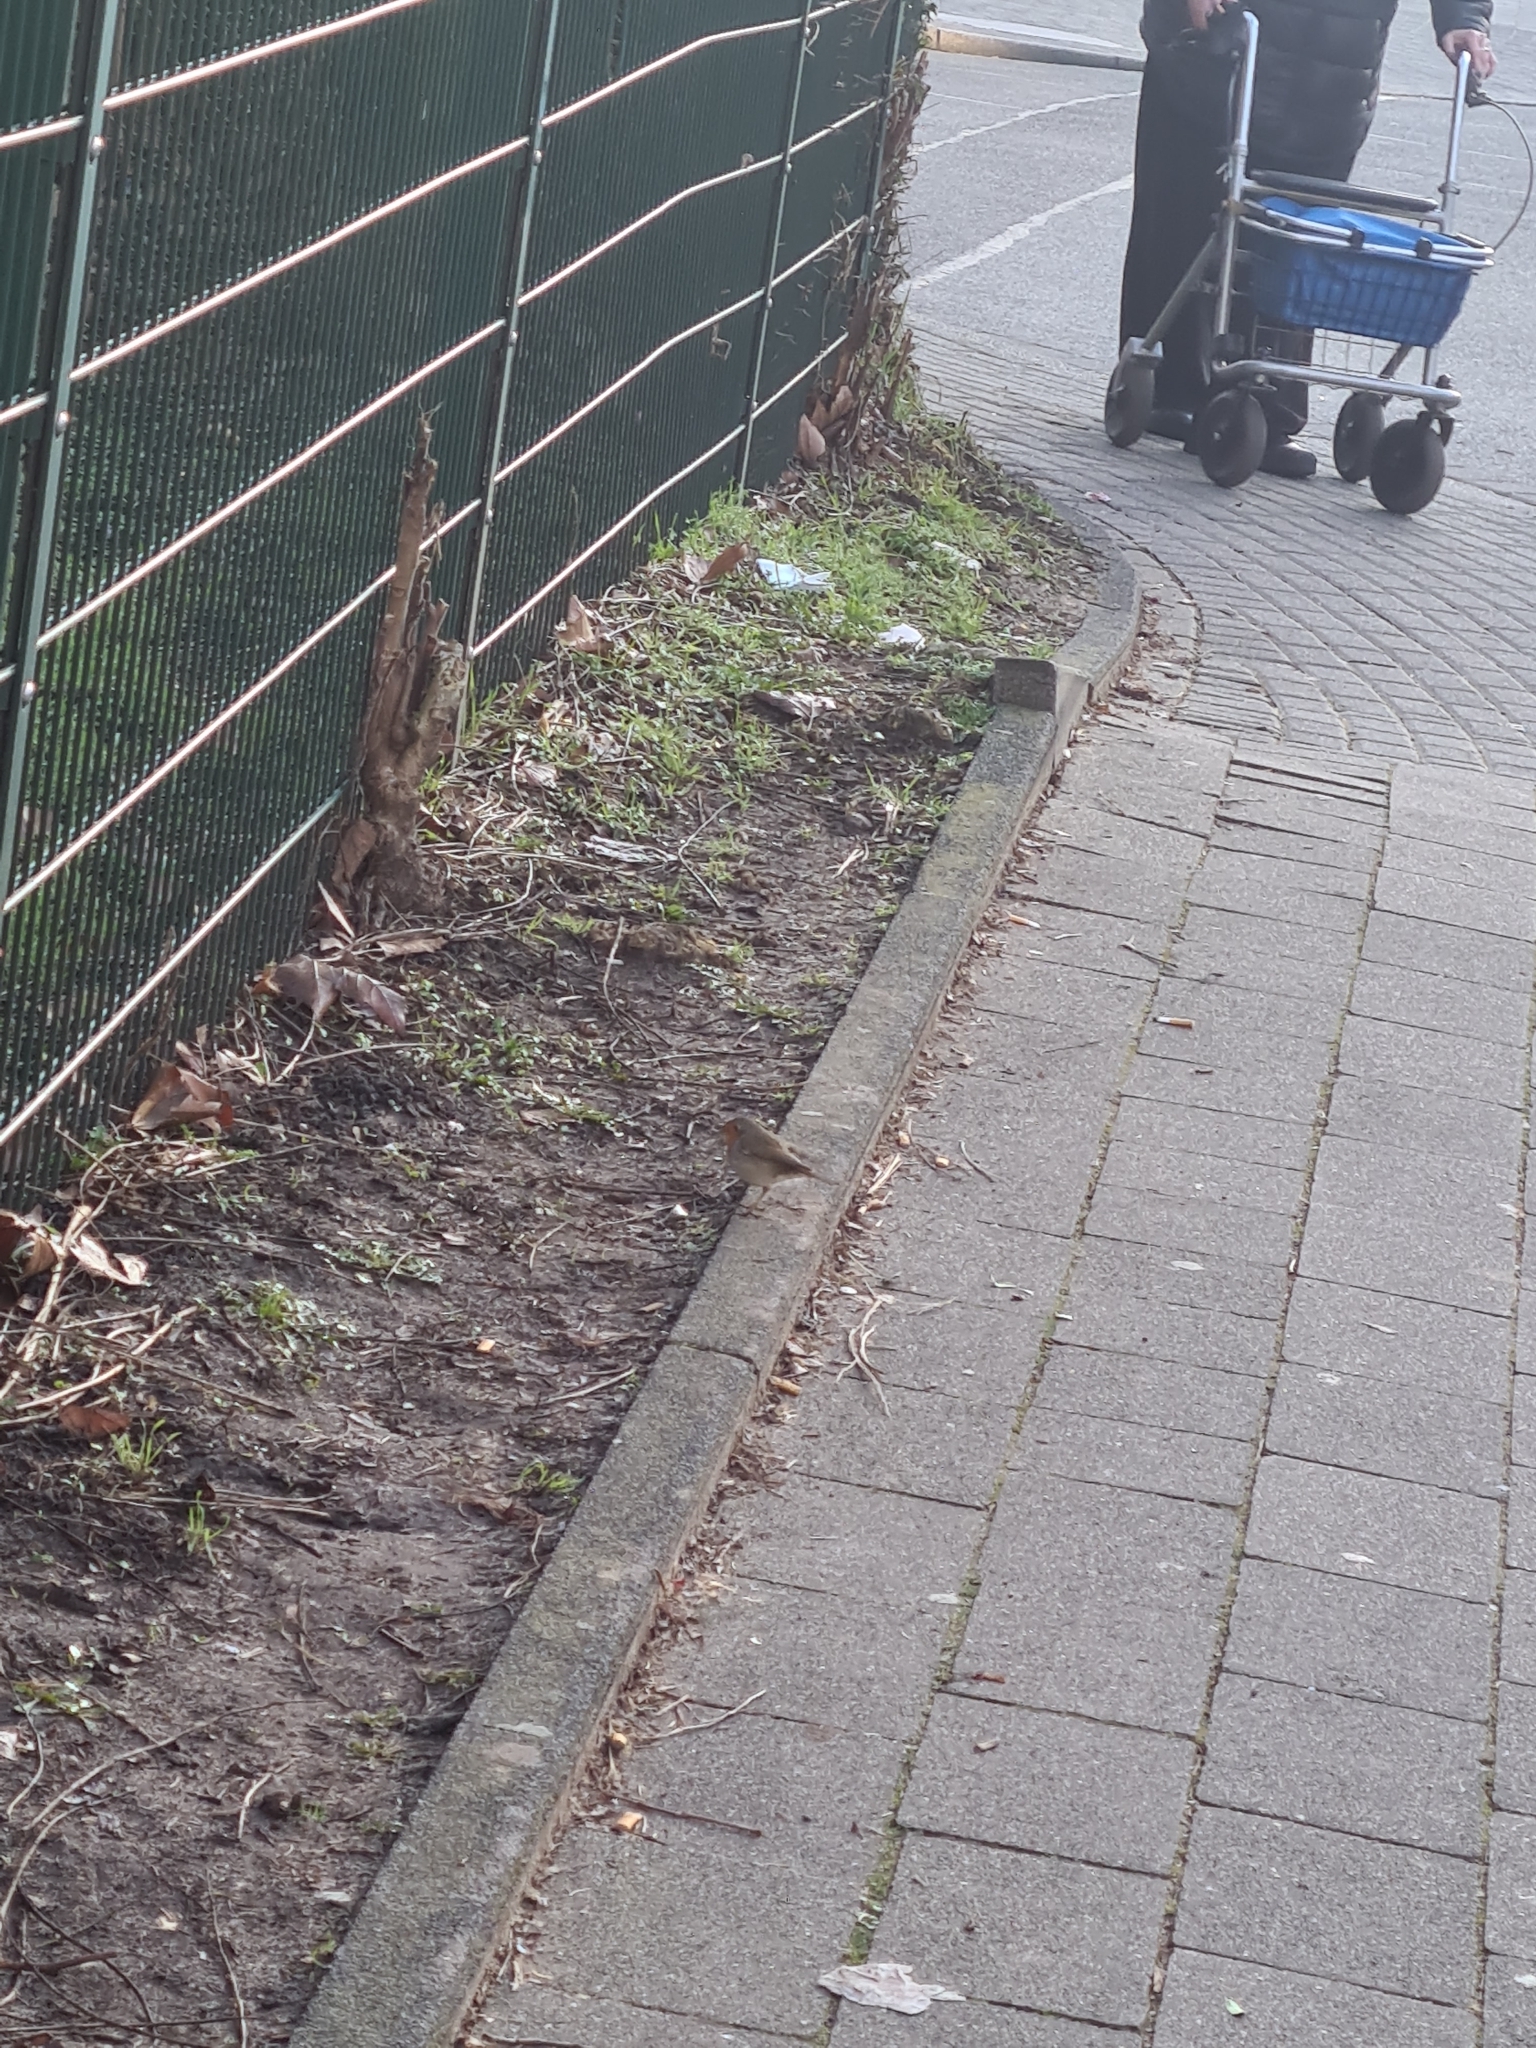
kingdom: Animalia
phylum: Chordata
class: Aves
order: Passeriformes
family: Muscicapidae
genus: Erithacus
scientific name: Erithacus rubecula
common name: European robin
